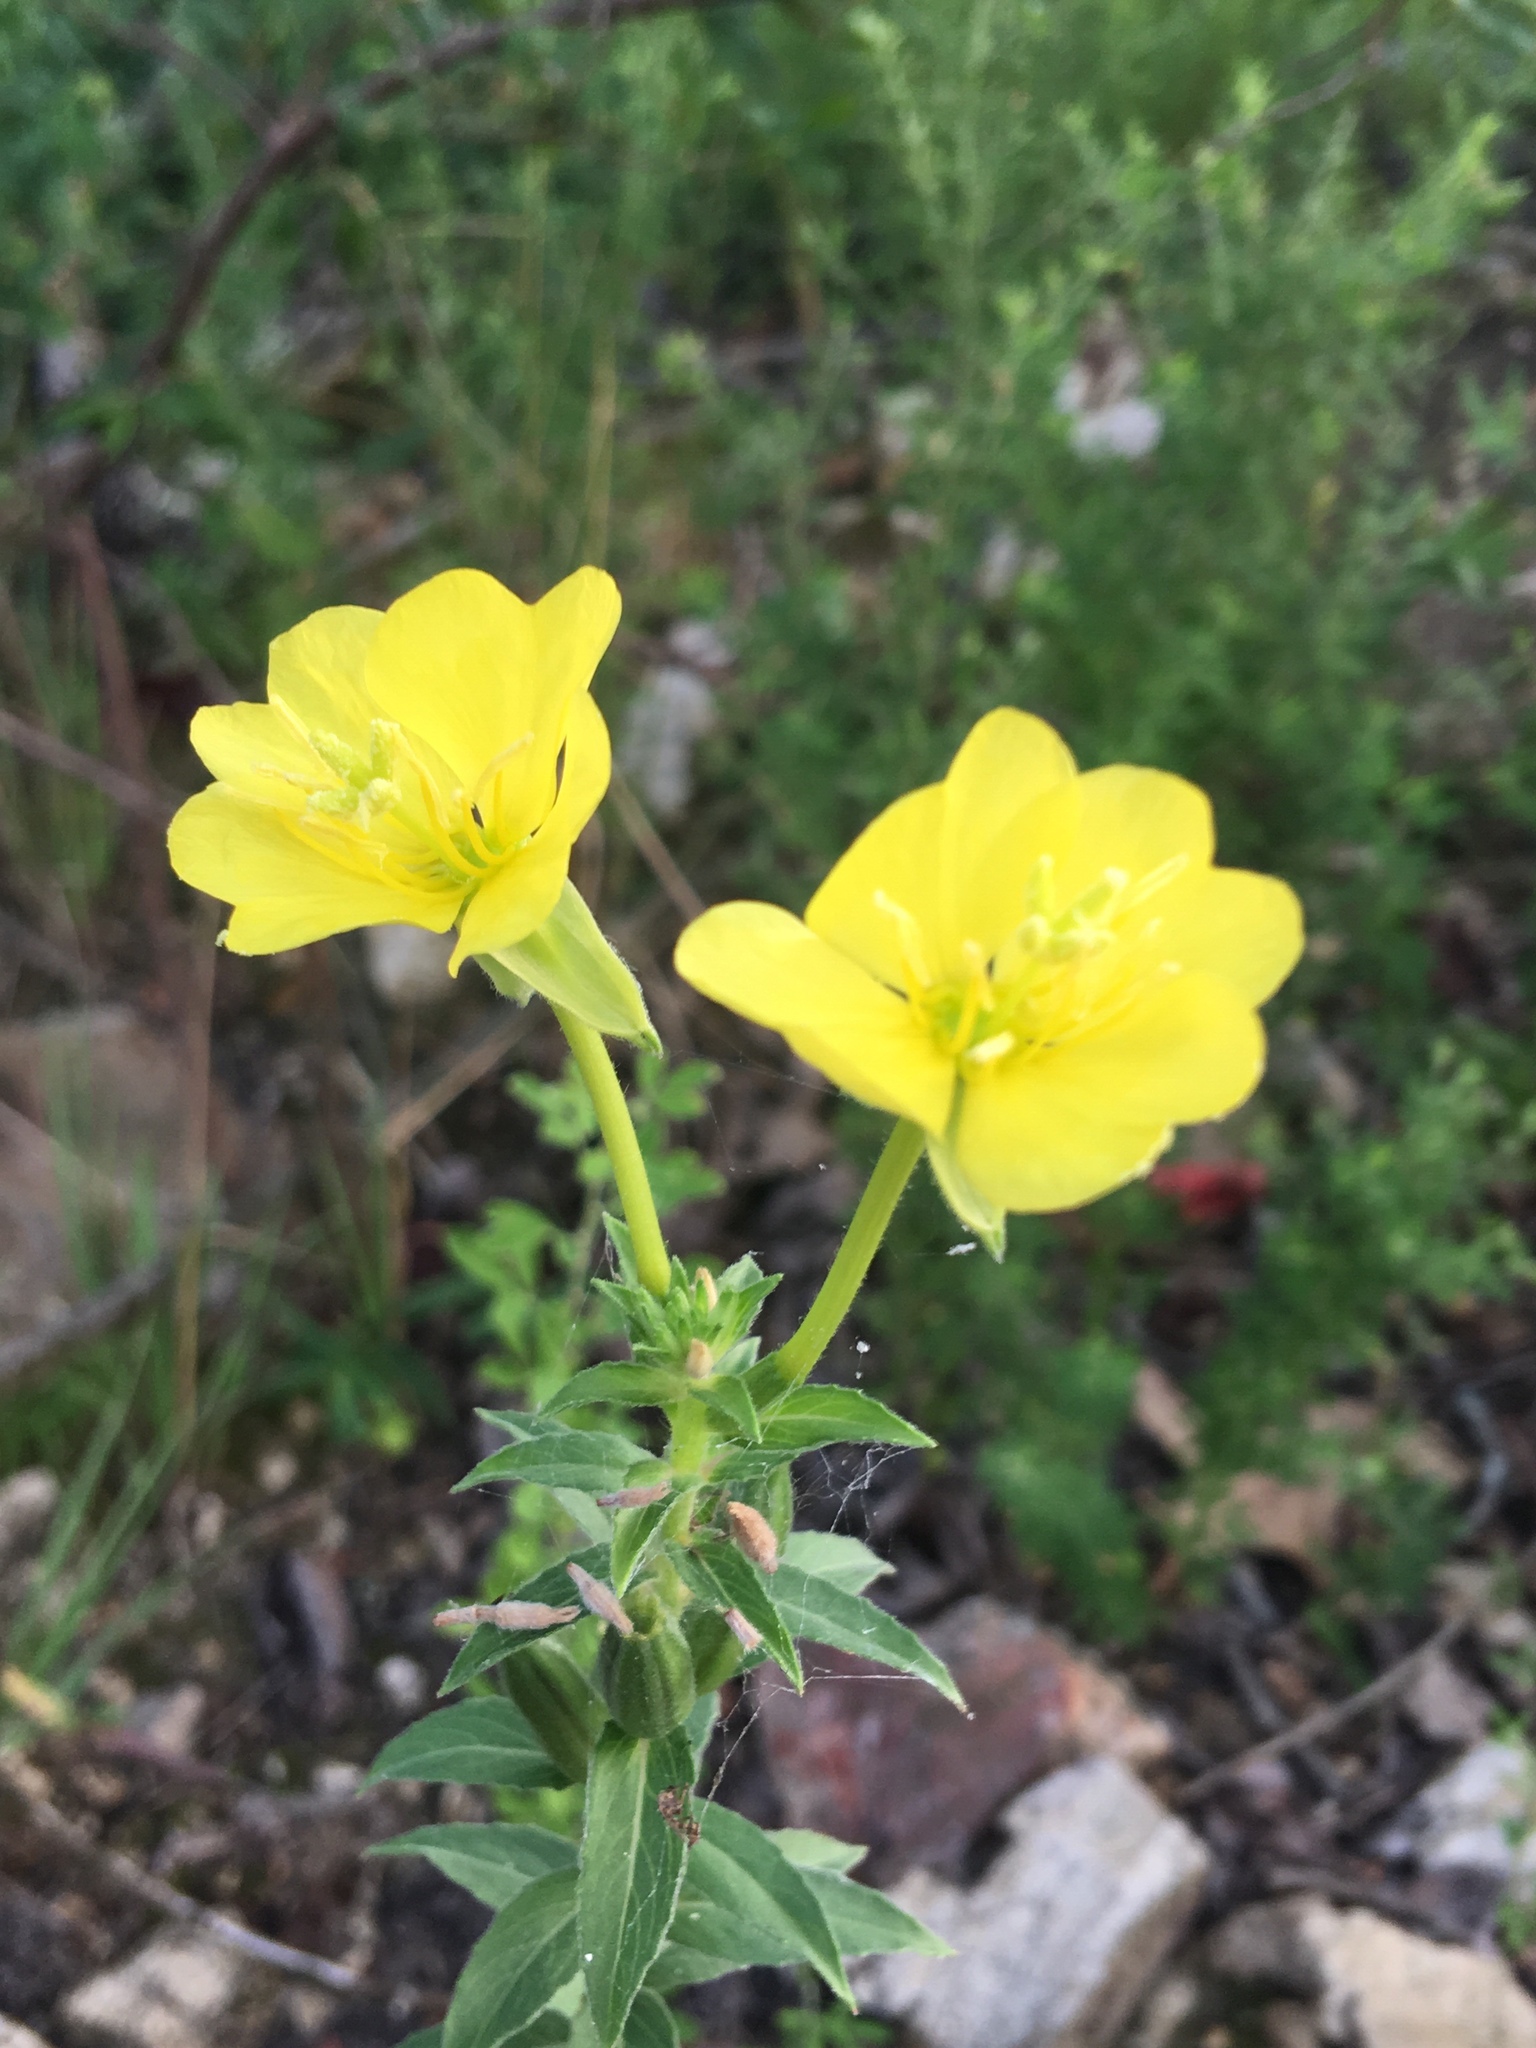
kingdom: Plantae
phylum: Tracheophyta
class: Magnoliopsida
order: Myrtales
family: Onagraceae
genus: Oenothera
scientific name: Oenothera biennis
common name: Common evening-primrose
